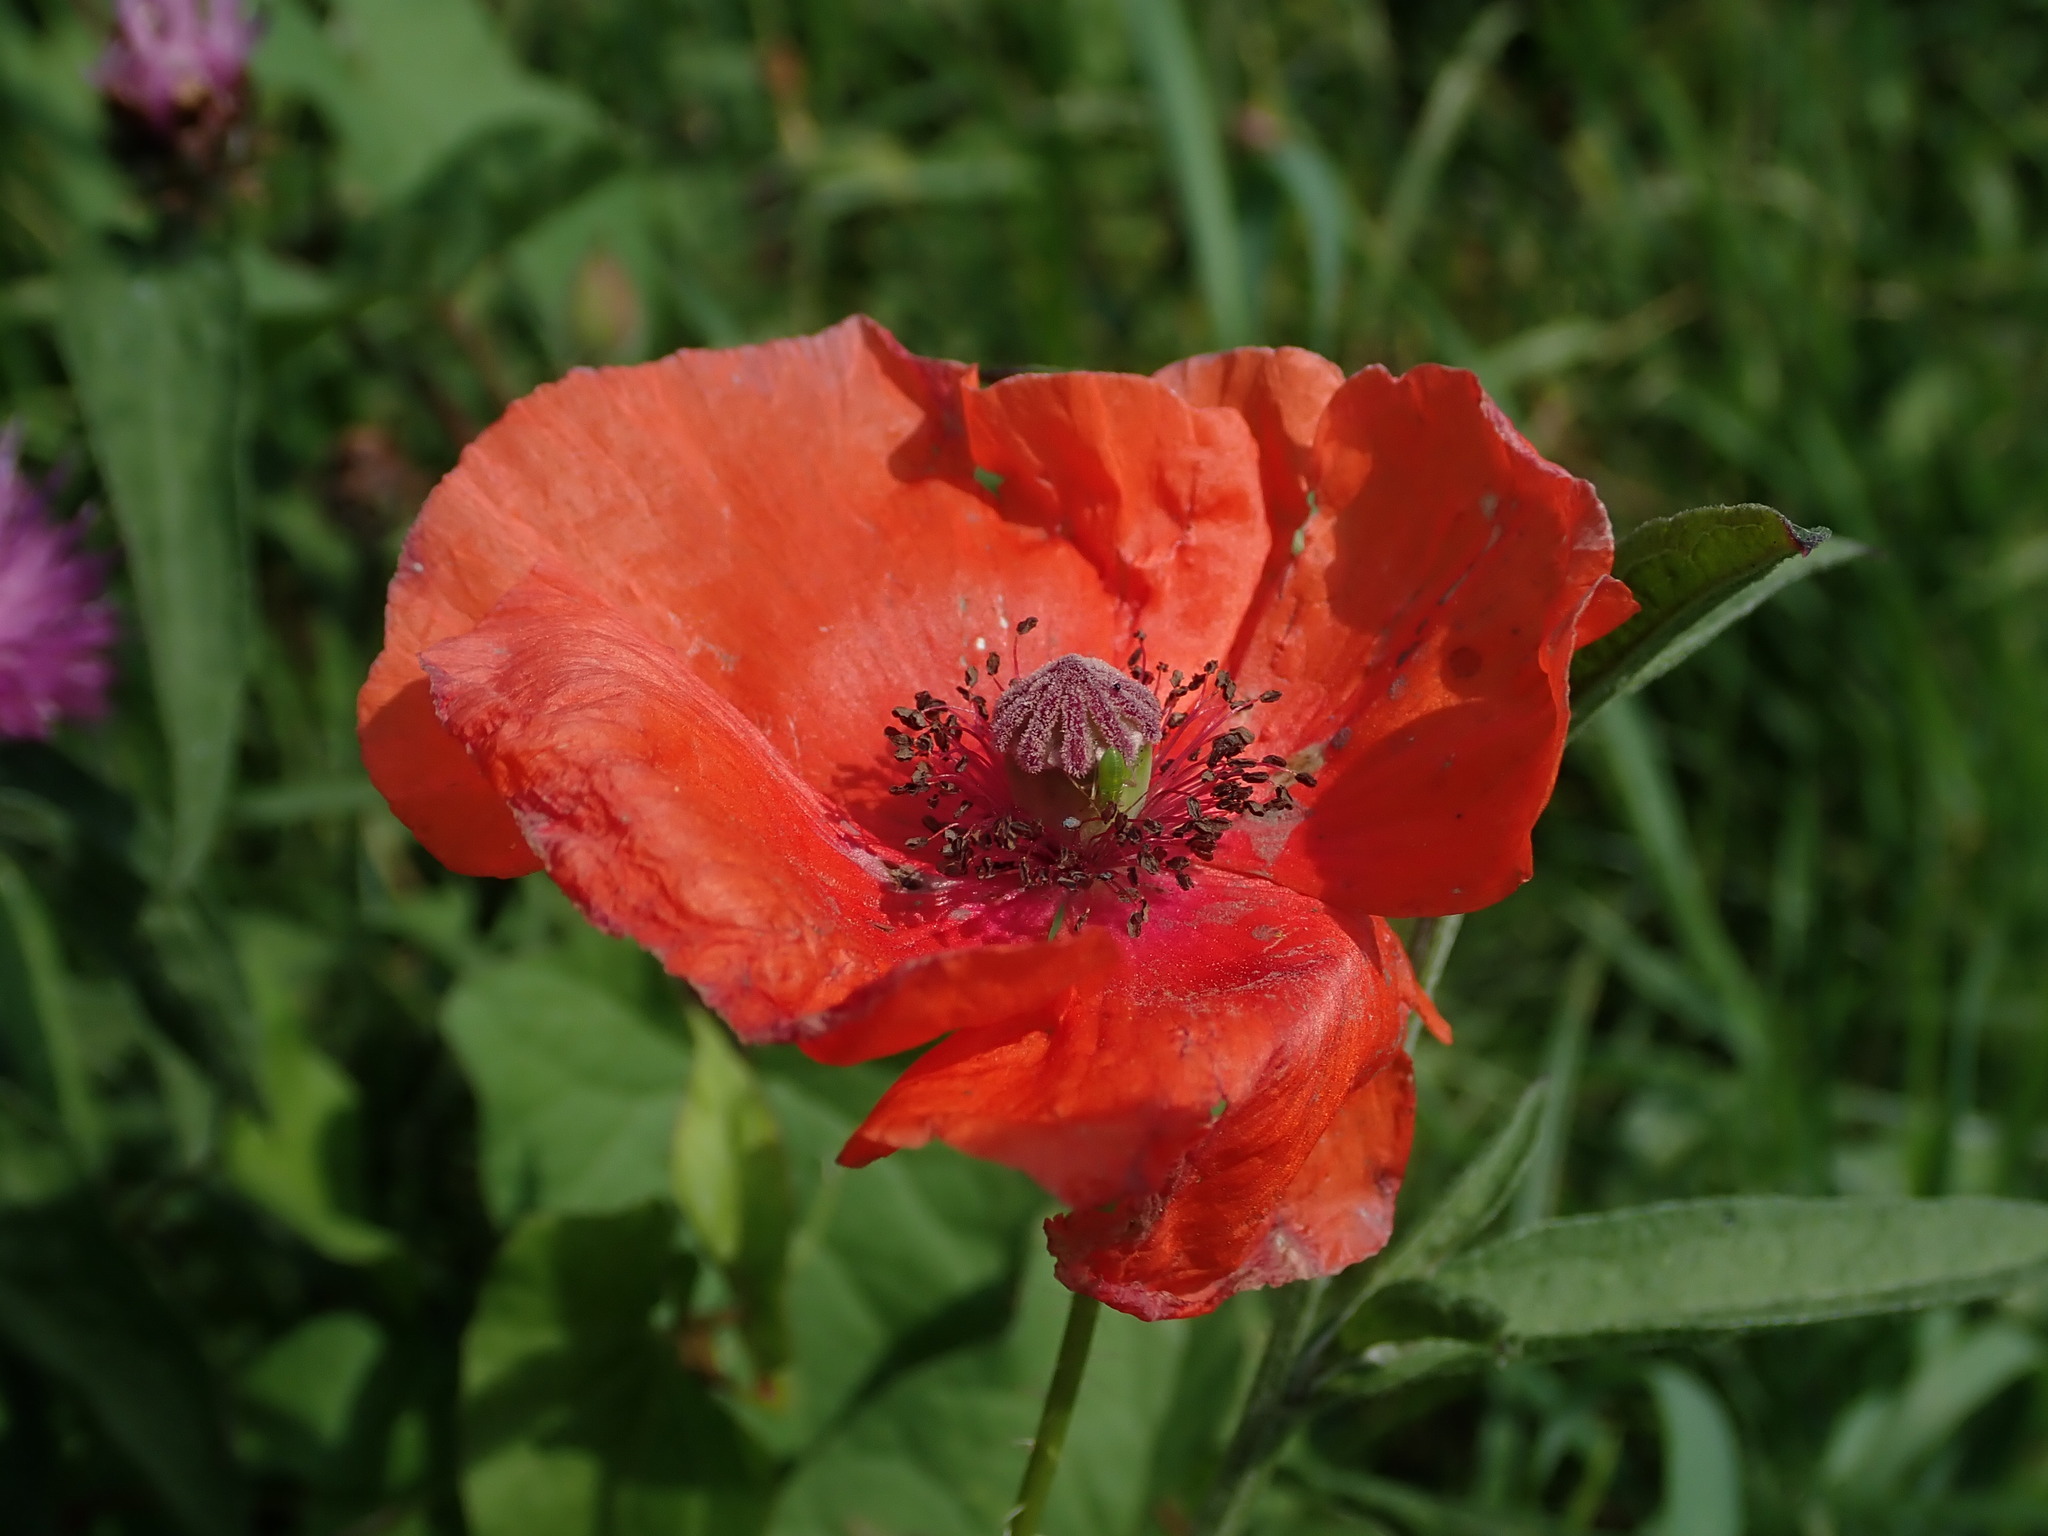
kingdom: Plantae
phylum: Tracheophyta
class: Magnoliopsida
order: Ranunculales
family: Papaveraceae
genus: Papaver
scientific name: Papaver rhoeas
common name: Corn poppy
